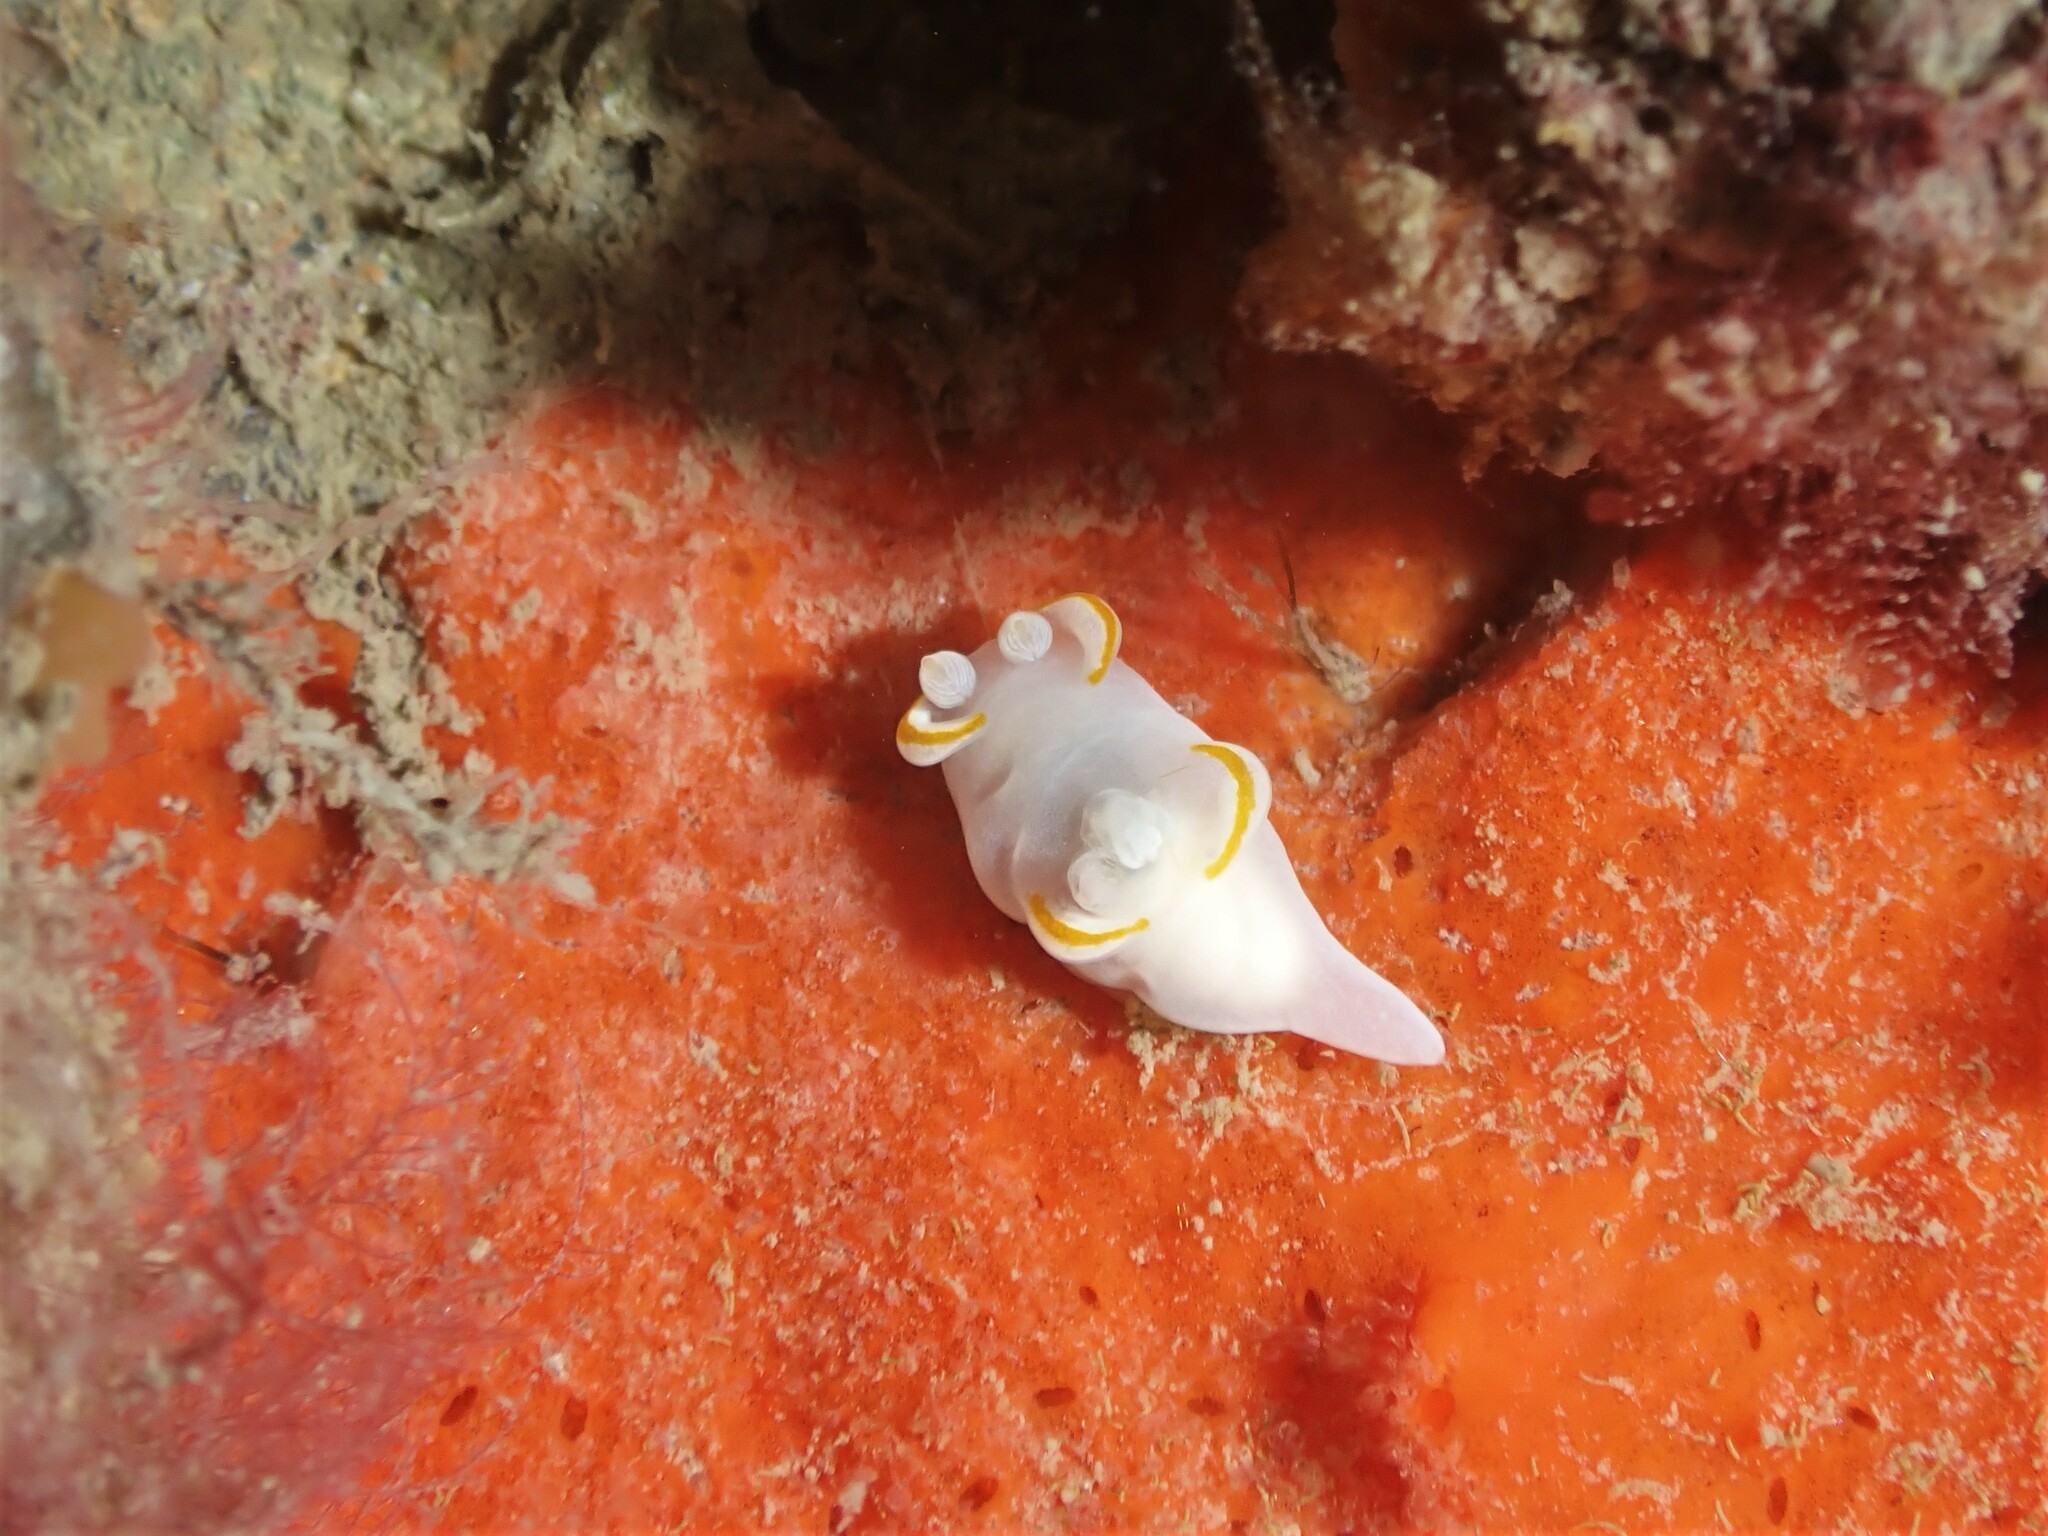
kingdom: Animalia
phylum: Mollusca
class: Gastropoda
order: Nudibranchia
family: Goniodorididae
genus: Trapania
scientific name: Trapania rudmani
